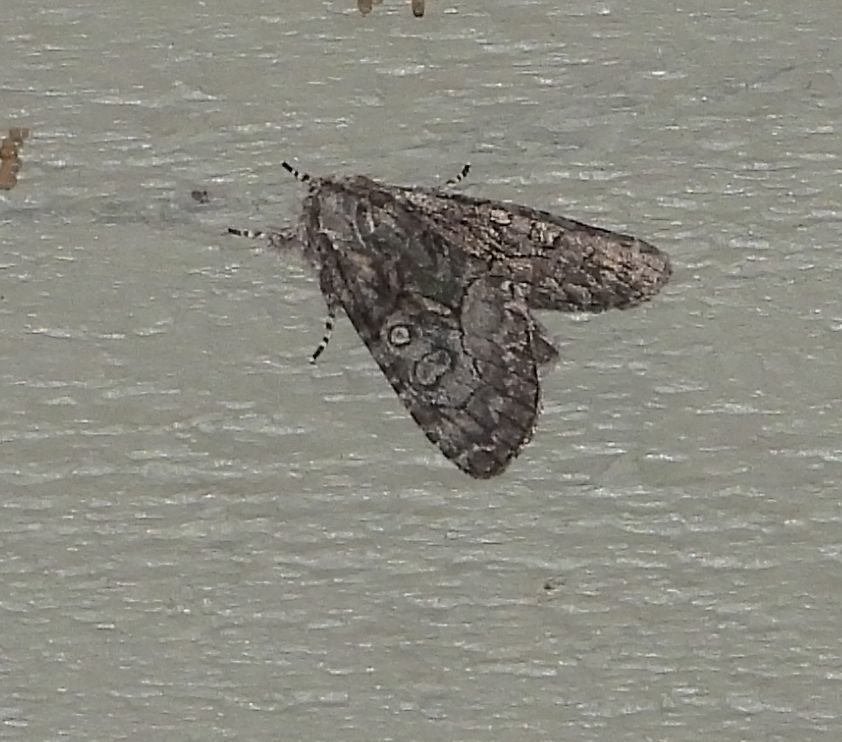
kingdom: Animalia
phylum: Arthropoda
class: Insecta
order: Lepidoptera
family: Noctuidae
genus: Raphia
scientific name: Raphia frater
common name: Brother
